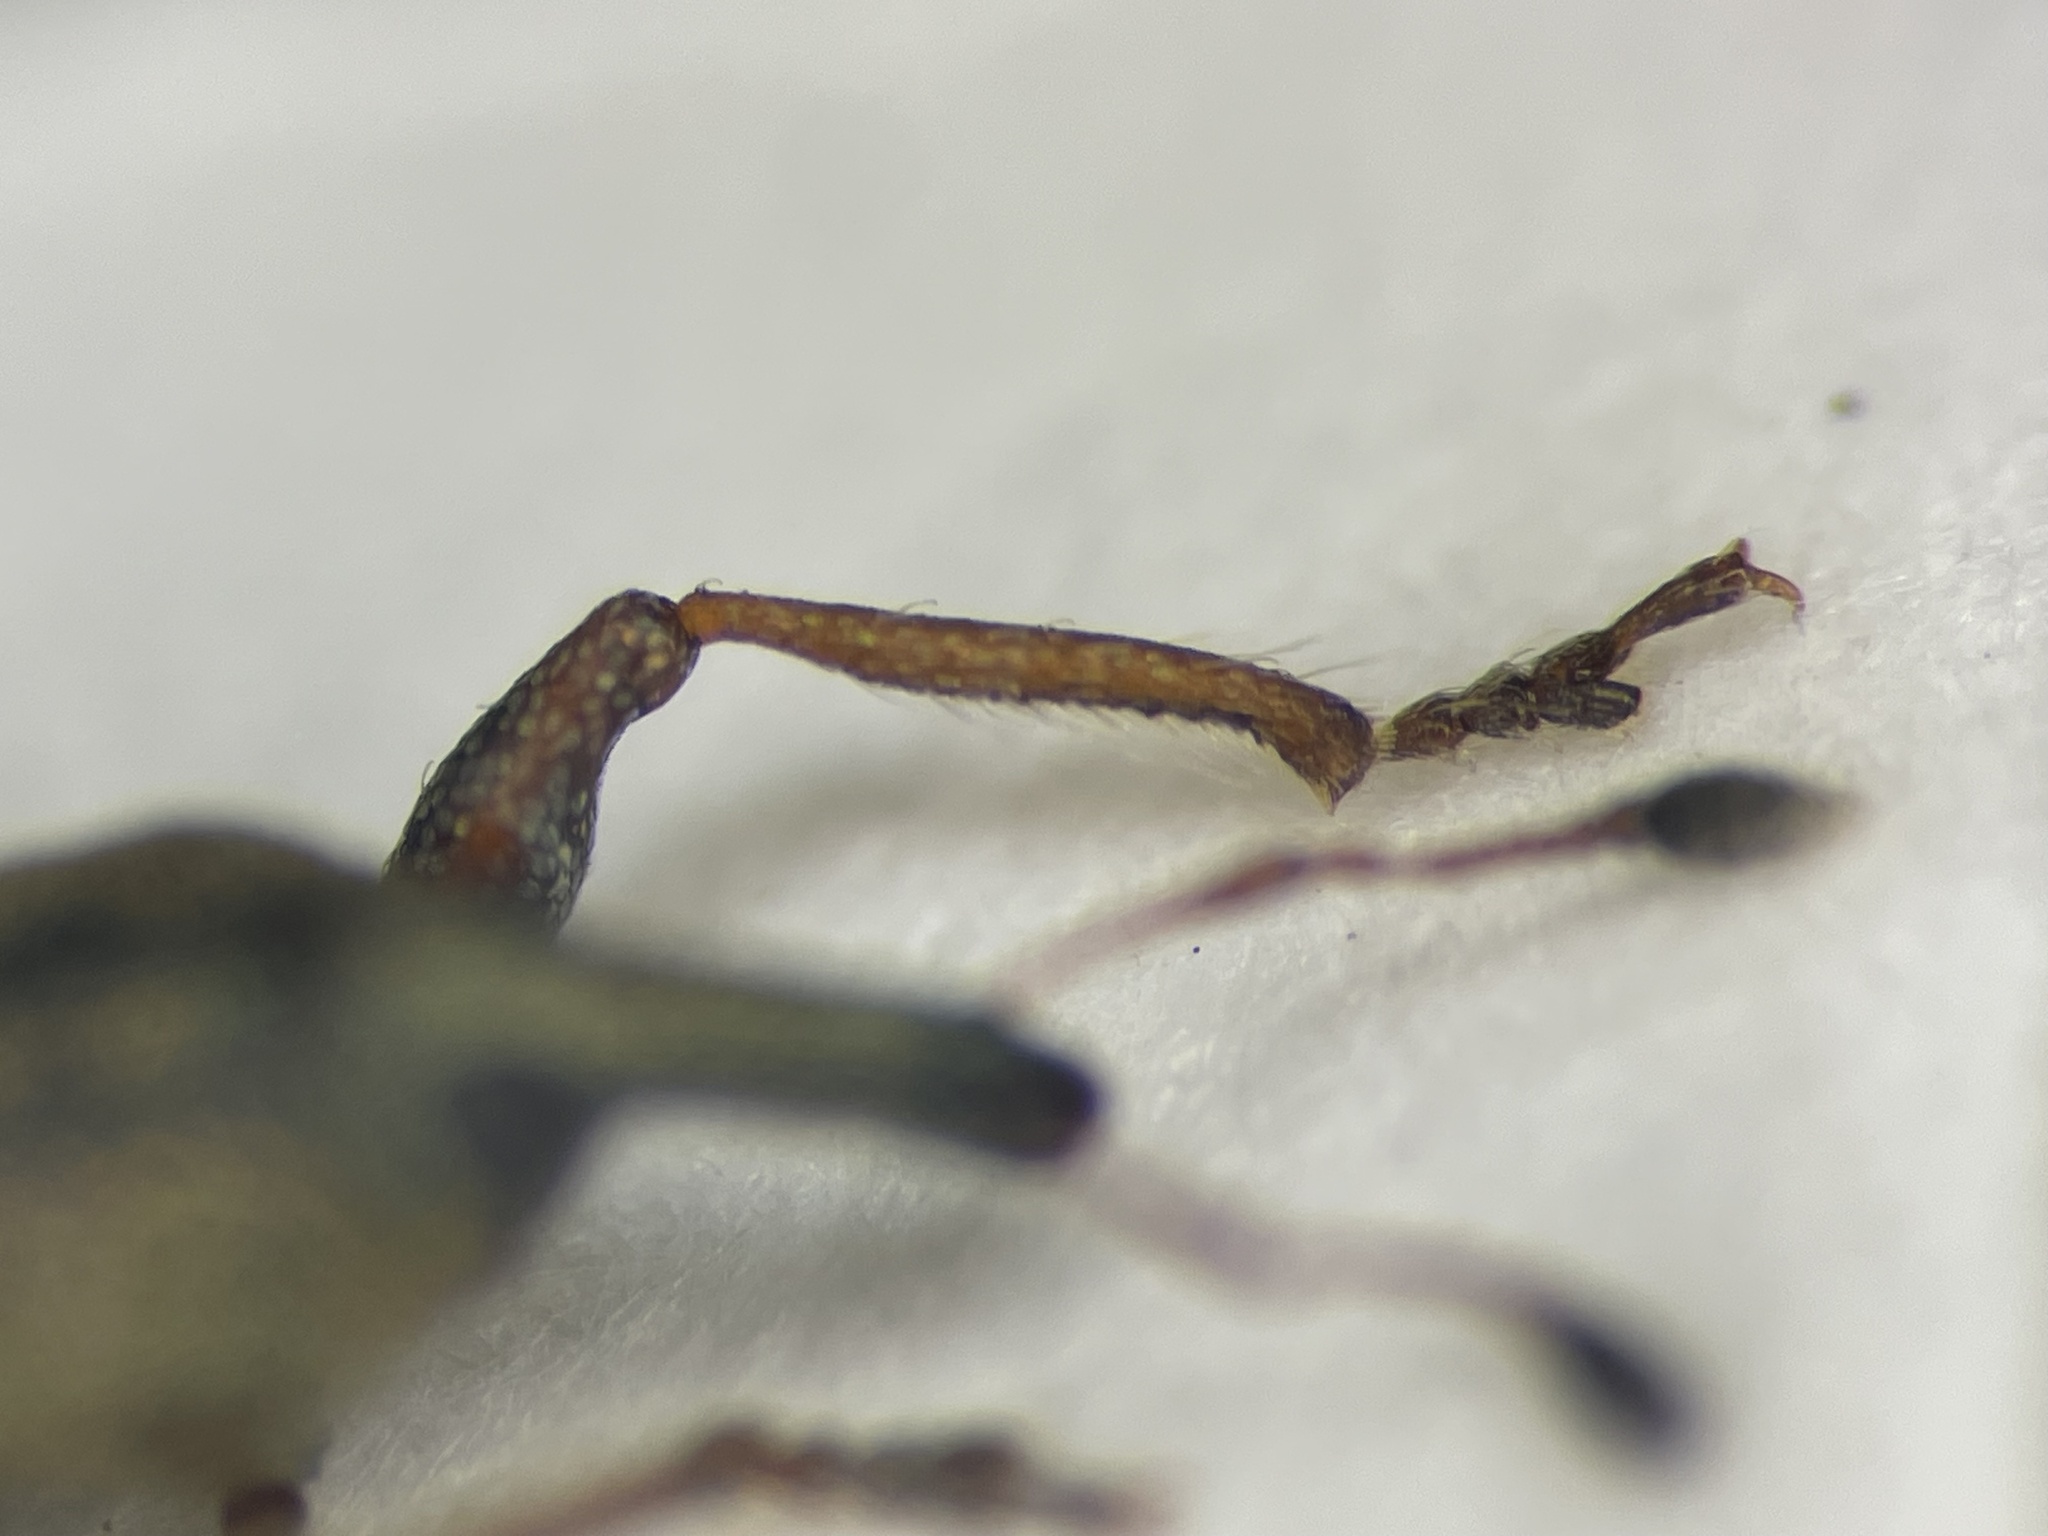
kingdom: Animalia
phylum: Arthropoda
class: Insecta
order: Coleoptera
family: Curculionidae
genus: Eupages
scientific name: Eupages lutulentus
